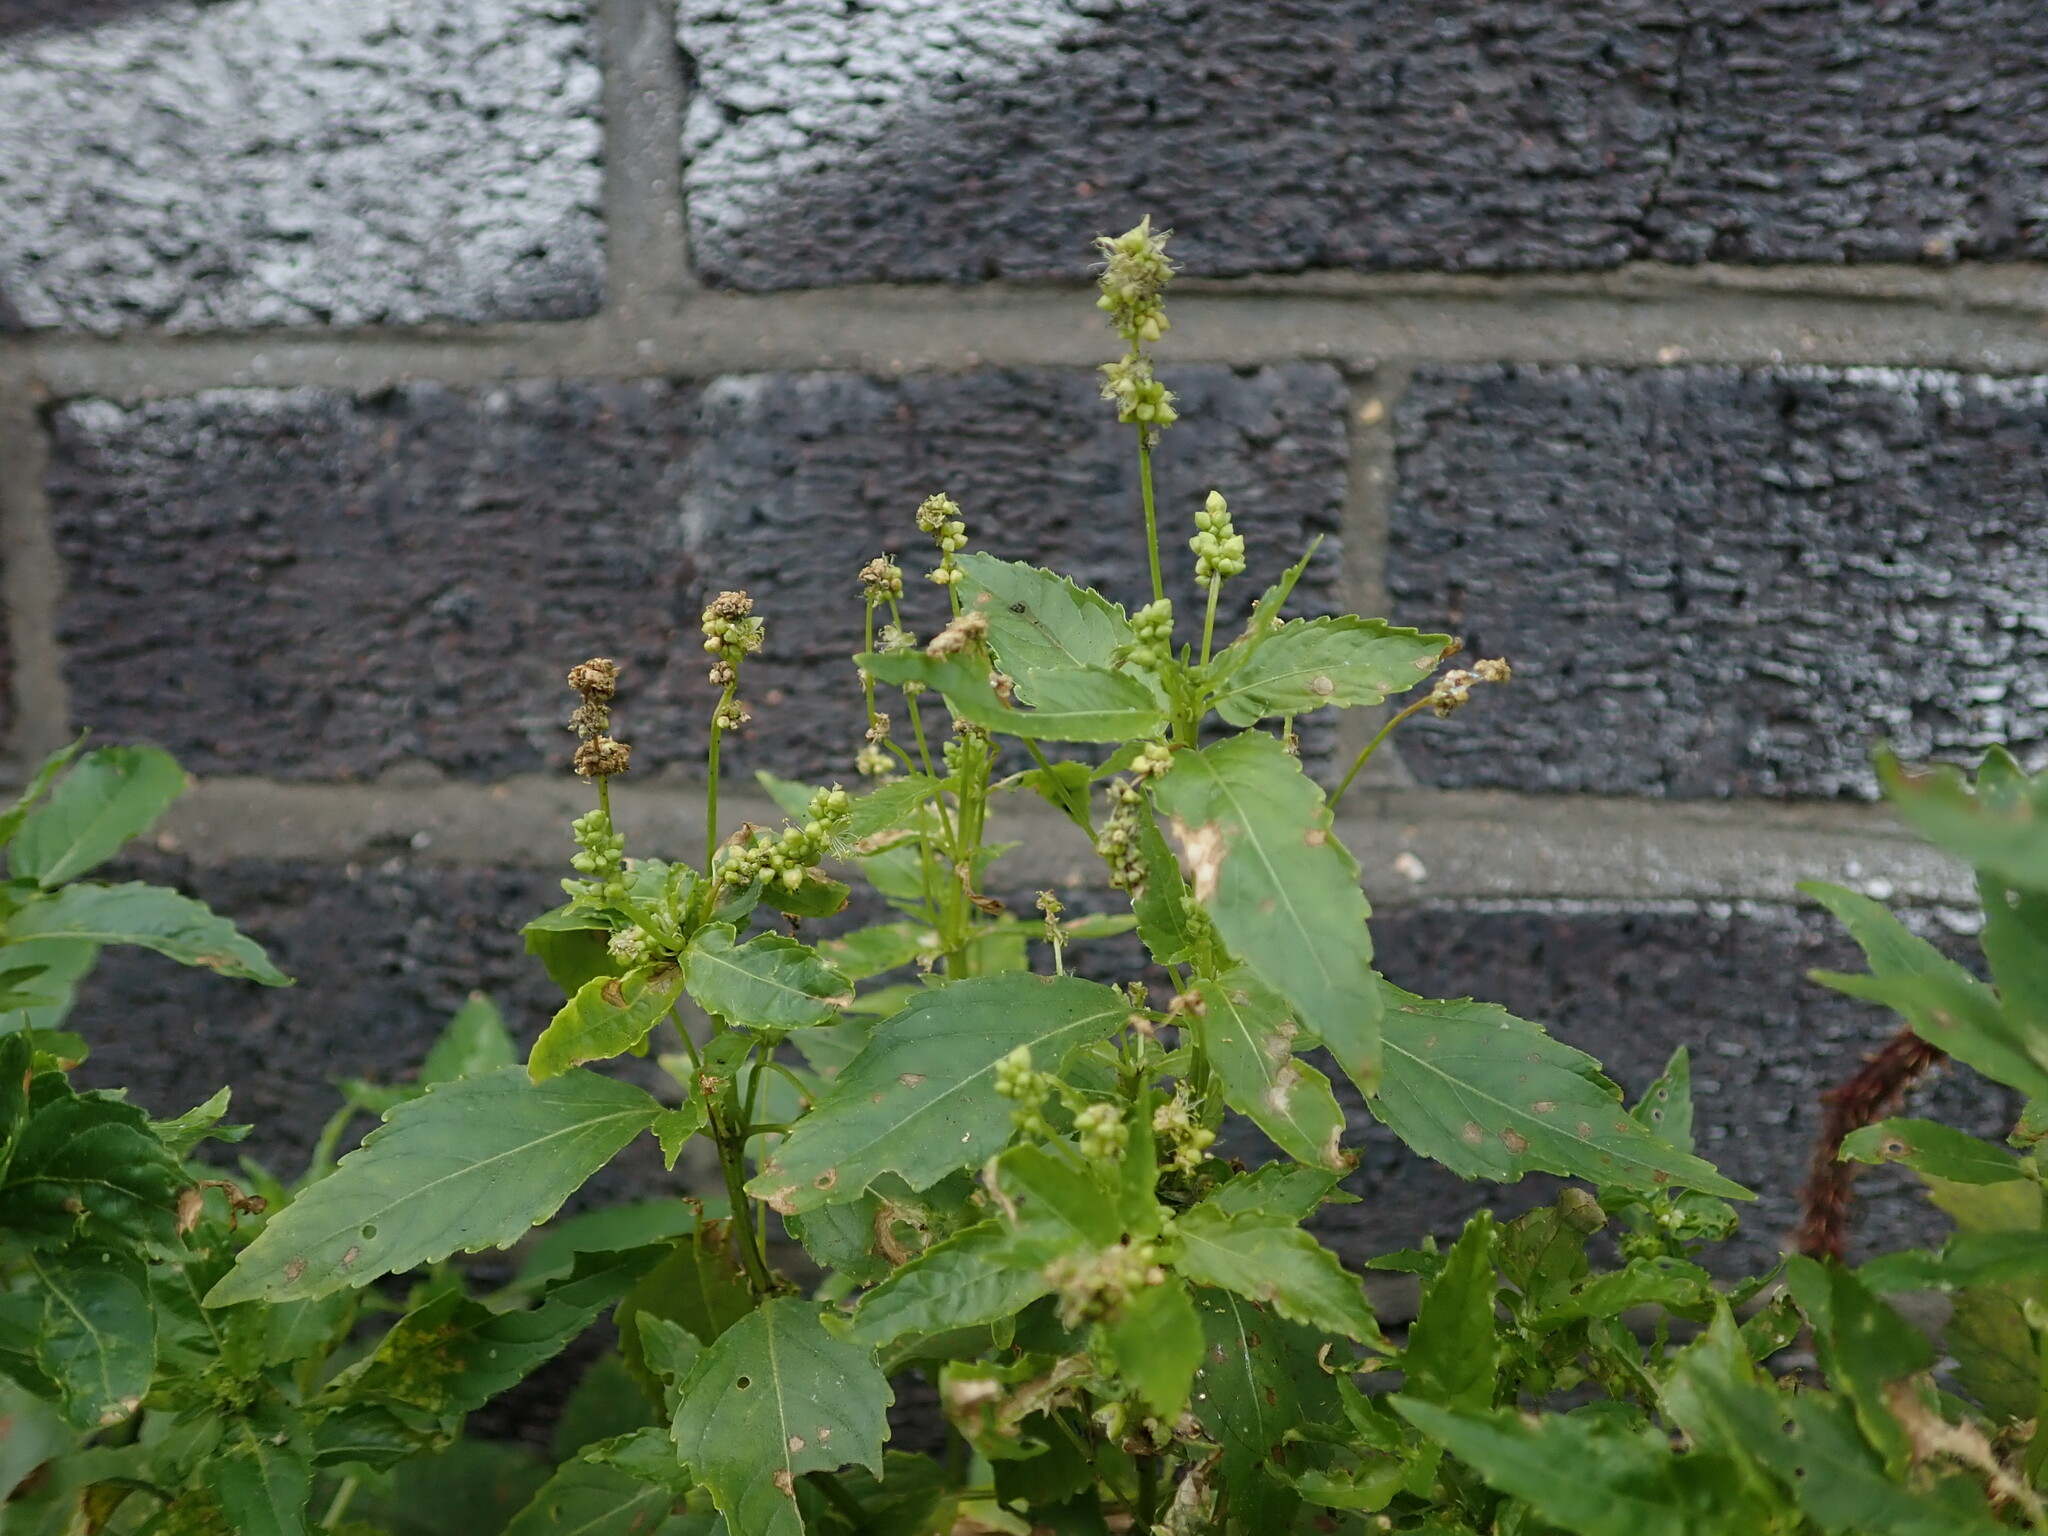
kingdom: Plantae
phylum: Tracheophyta
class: Magnoliopsida
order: Malpighiales
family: Euphorbiaceae
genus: Mercurialis
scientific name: Mercurialis annua
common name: Annual mercury
